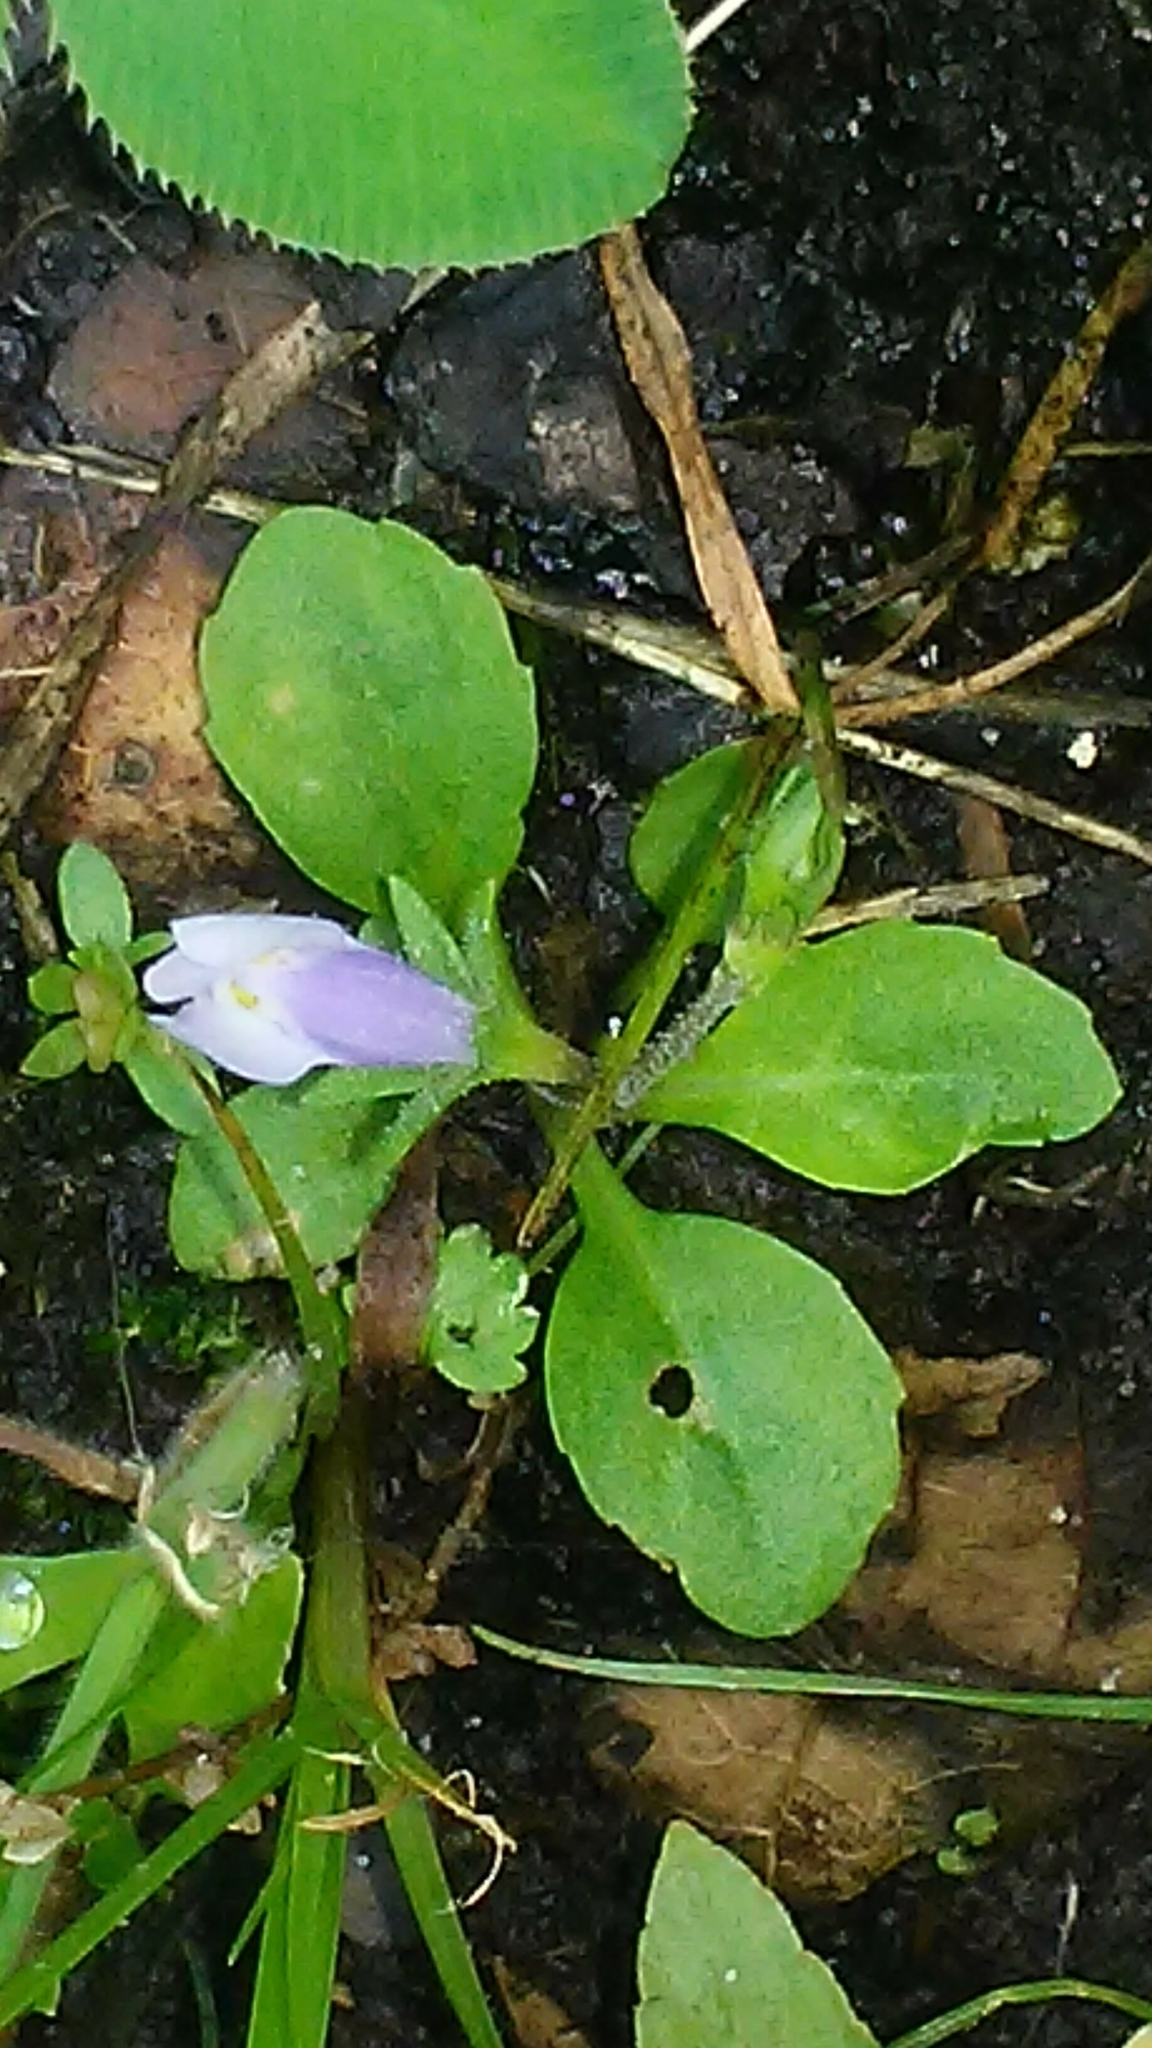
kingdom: Plantae
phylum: Tracheophyta
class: Magnoliopsida
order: Lamiales
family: Mazaceae
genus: Mazus
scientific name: Mazus pumilus
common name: Japanese mazus
